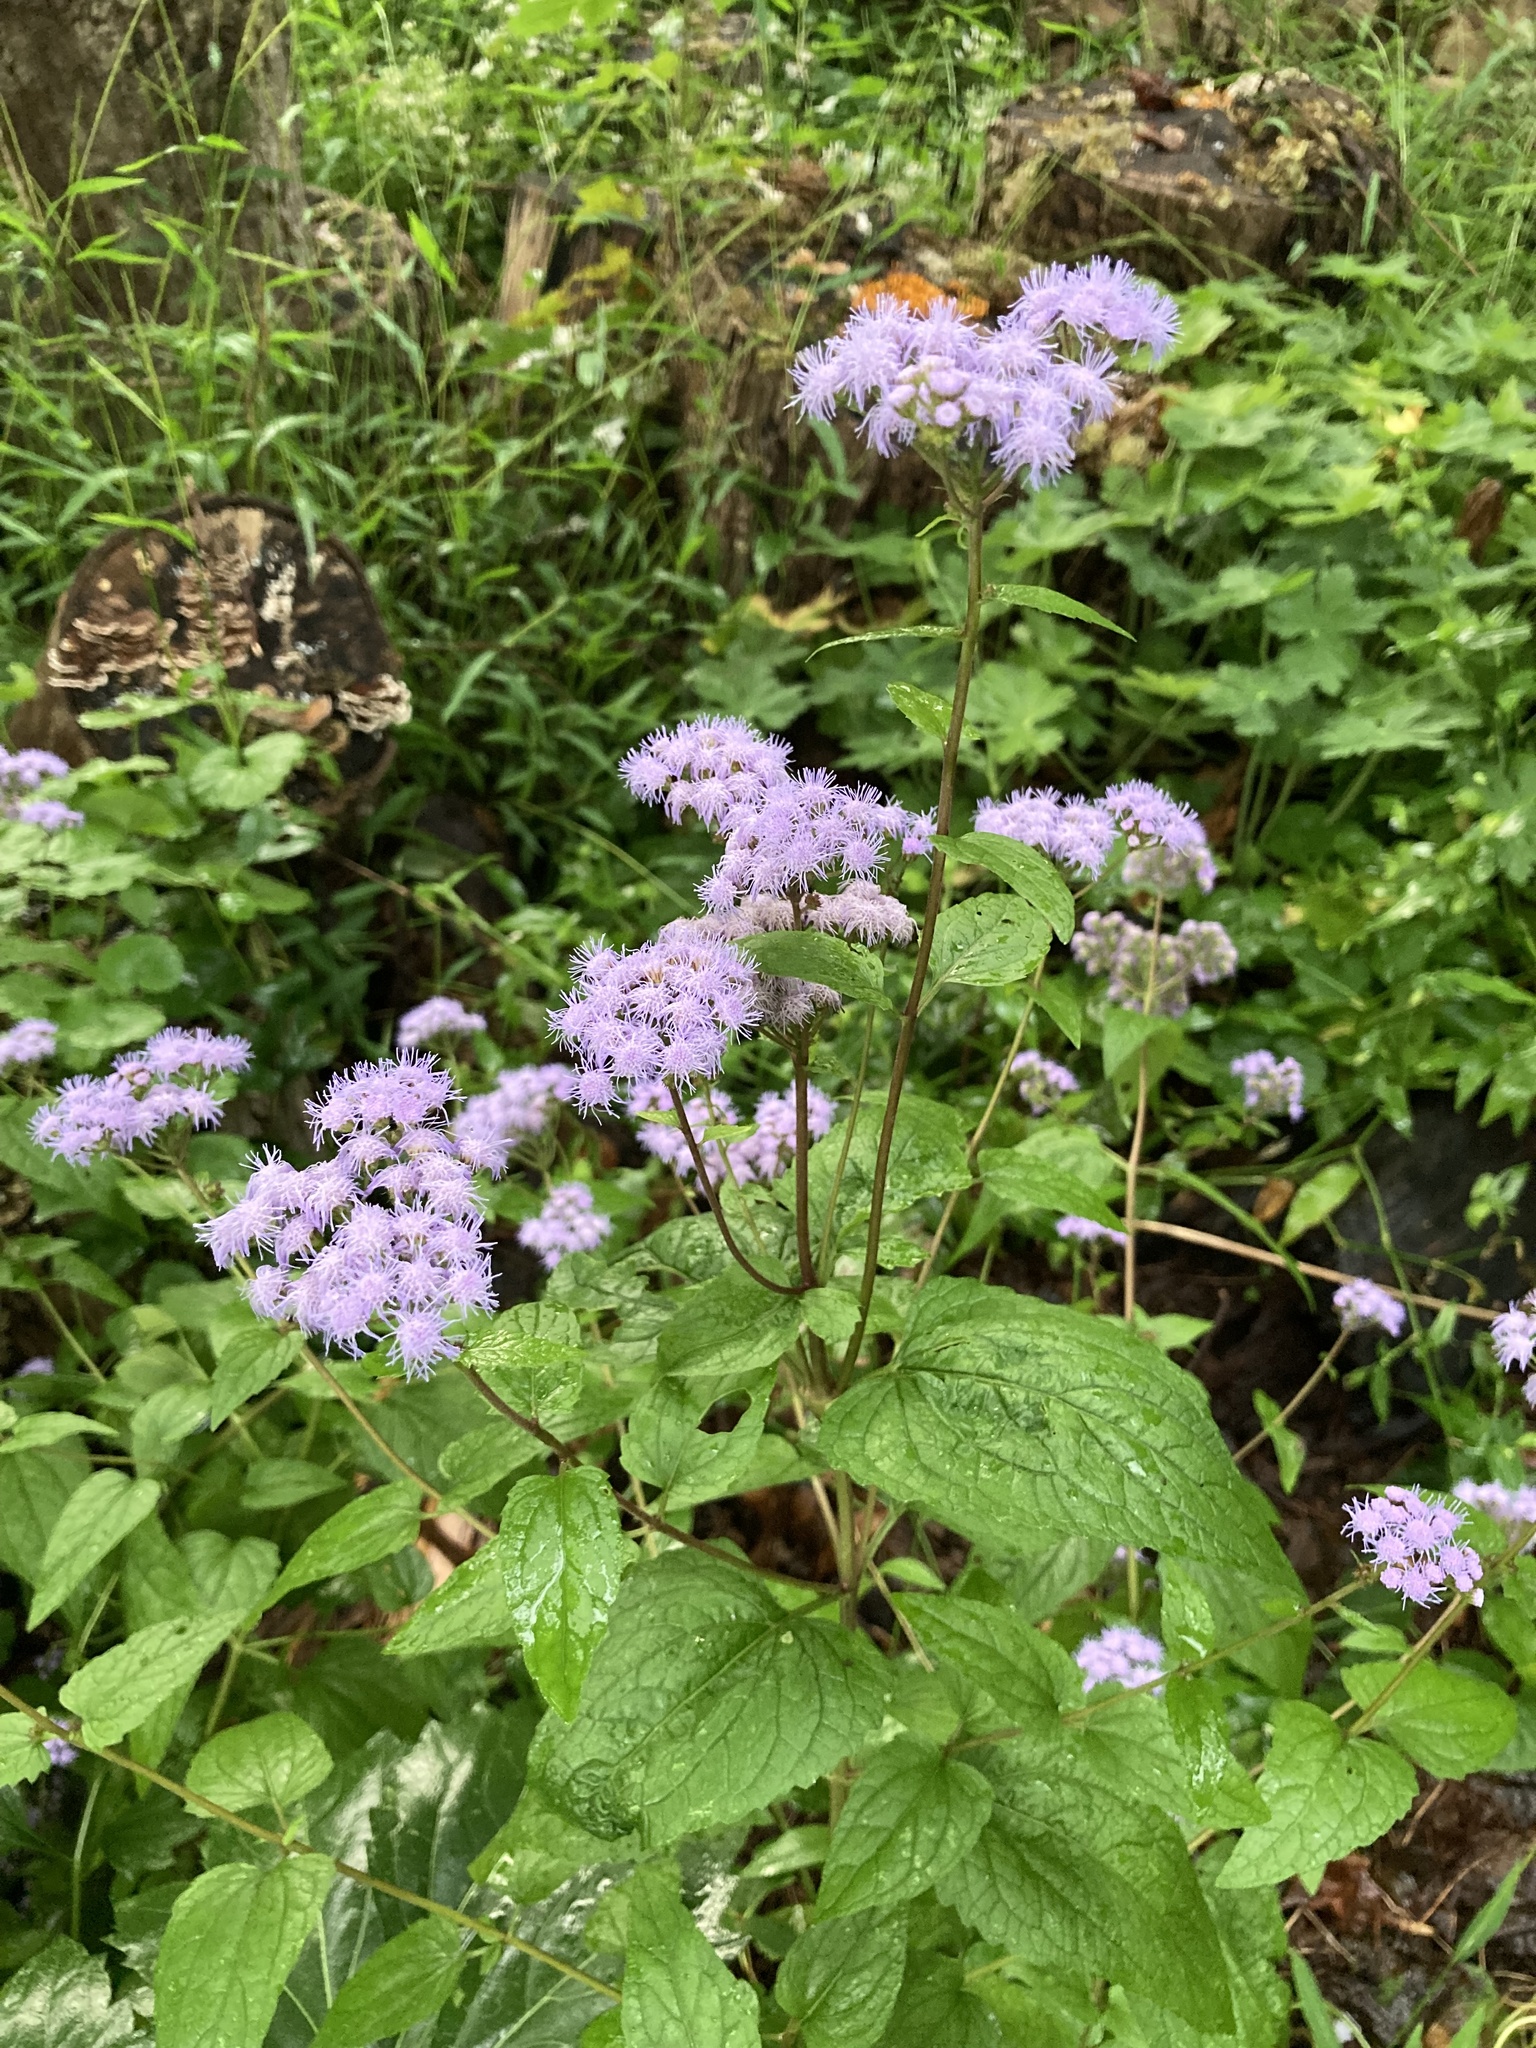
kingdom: Plantae
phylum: Tracheophyta
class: Magnoliopsida
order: Asterales
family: Asteraceae
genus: Conoclinium
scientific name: Conoclinium coelestinum
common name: Blue mistflower
